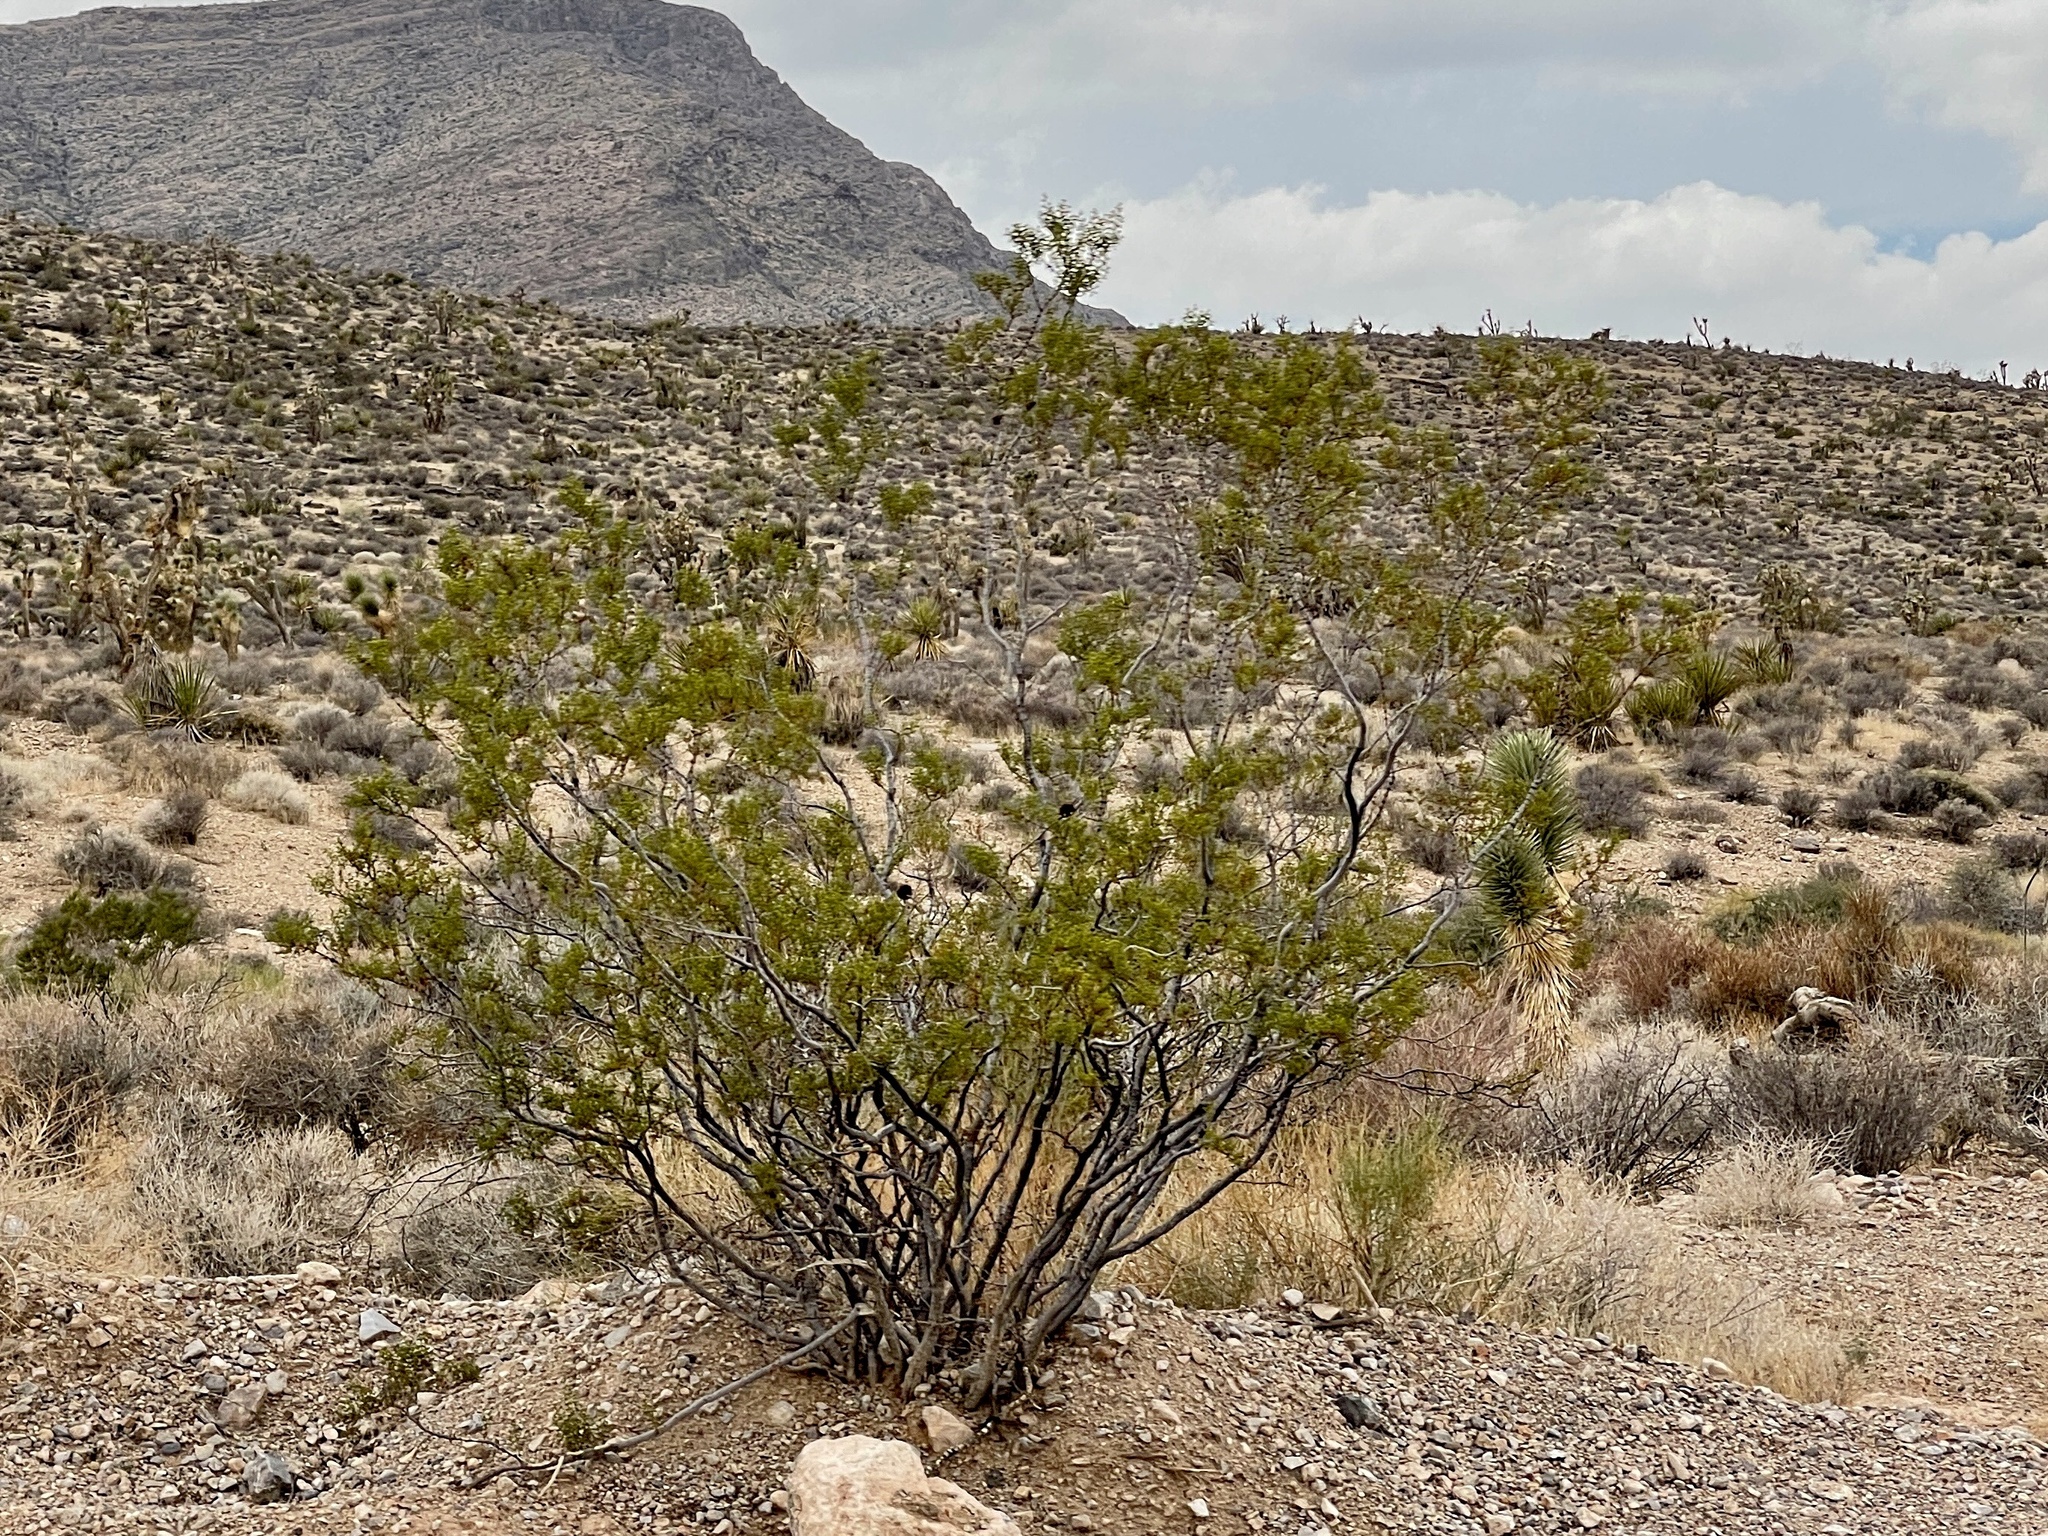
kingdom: Plantae
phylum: Tracheophyta
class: Magnoliopsida
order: Zygophyllales
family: Zygophyllaceae
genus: Larrea
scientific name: Larrea tridentata
